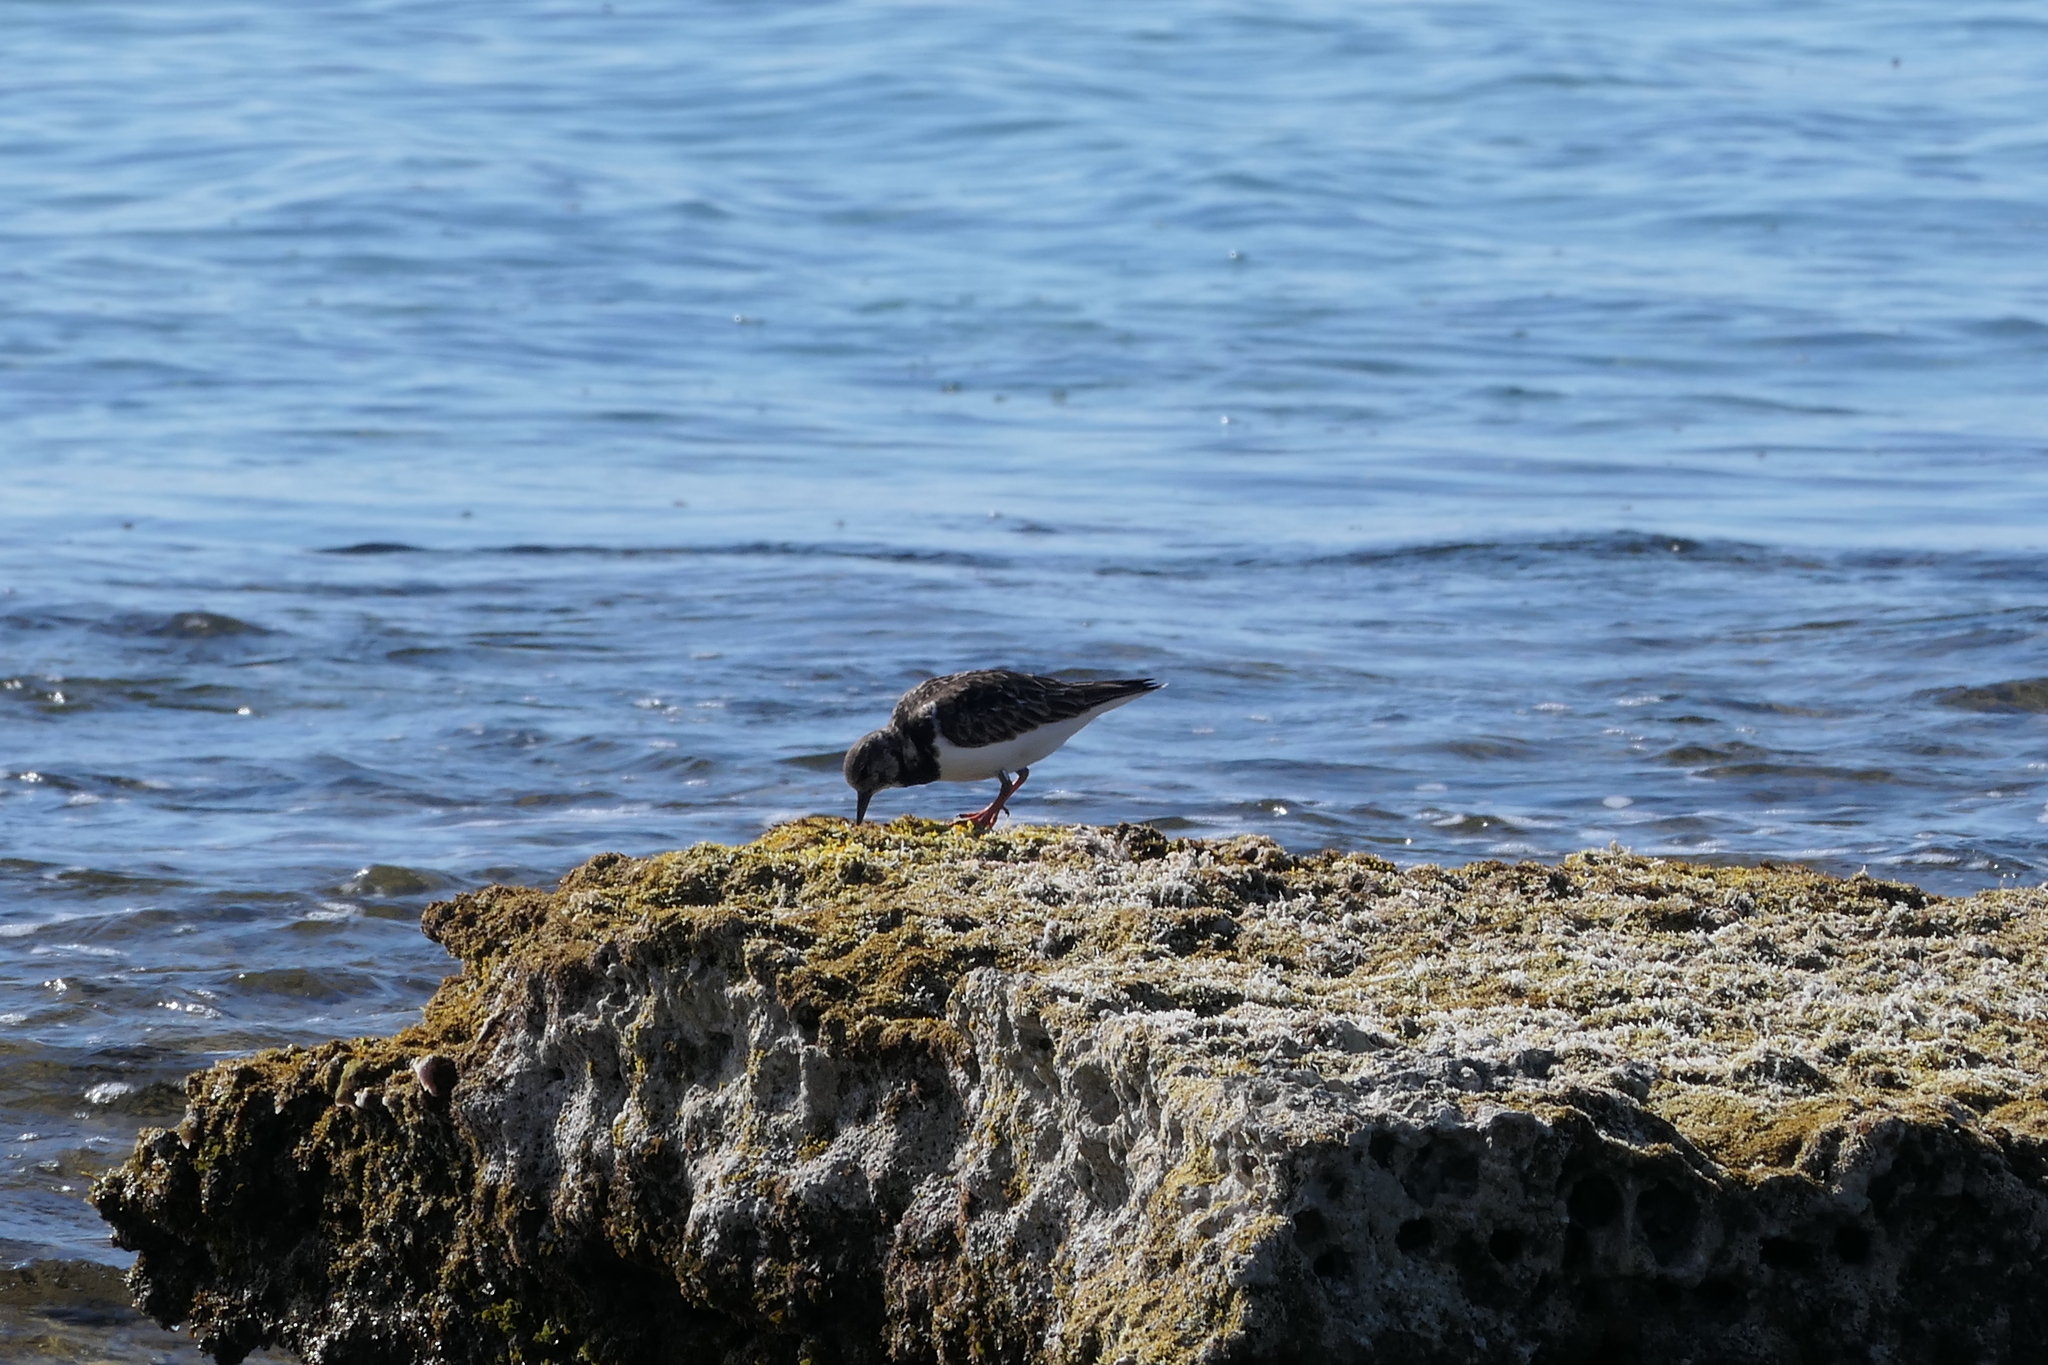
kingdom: Animalia
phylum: Chordata
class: Aves
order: Charadriiformes
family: Scolopacidae
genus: Arenaria
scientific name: Arenaria interpres
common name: Ruddy turnstone
